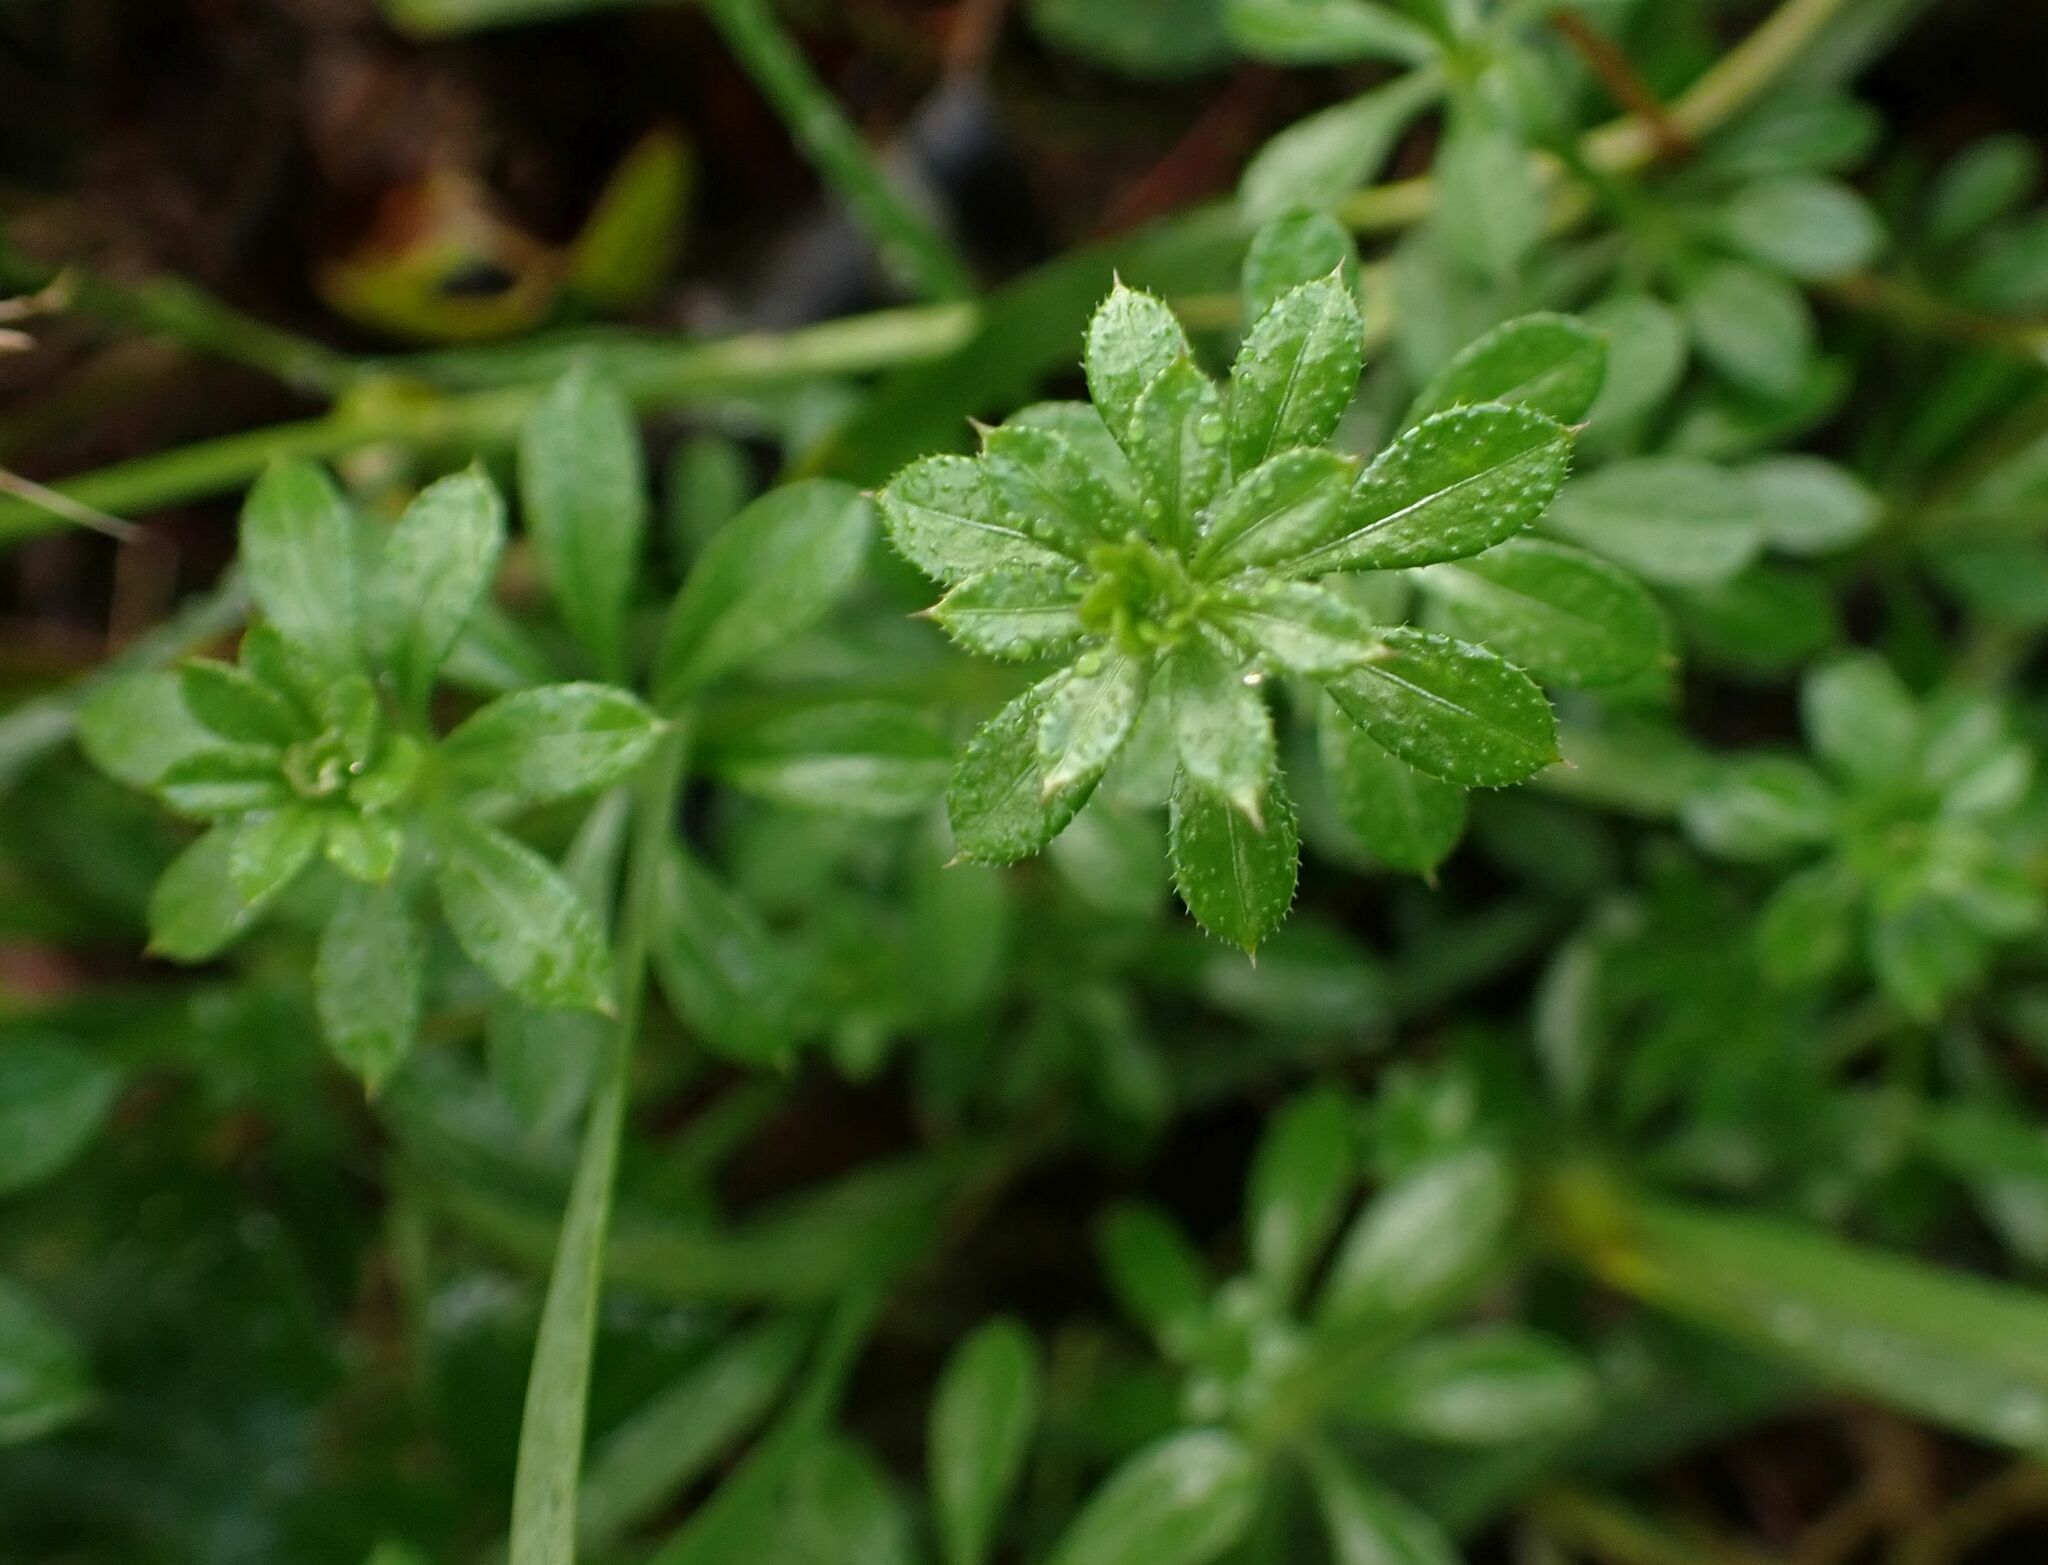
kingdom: Plantae
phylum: Tracheophyta
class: Magnoliopsida
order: Gentianales
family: Rubiaceae
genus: Galium
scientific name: Galium aparine
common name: Cleavers
